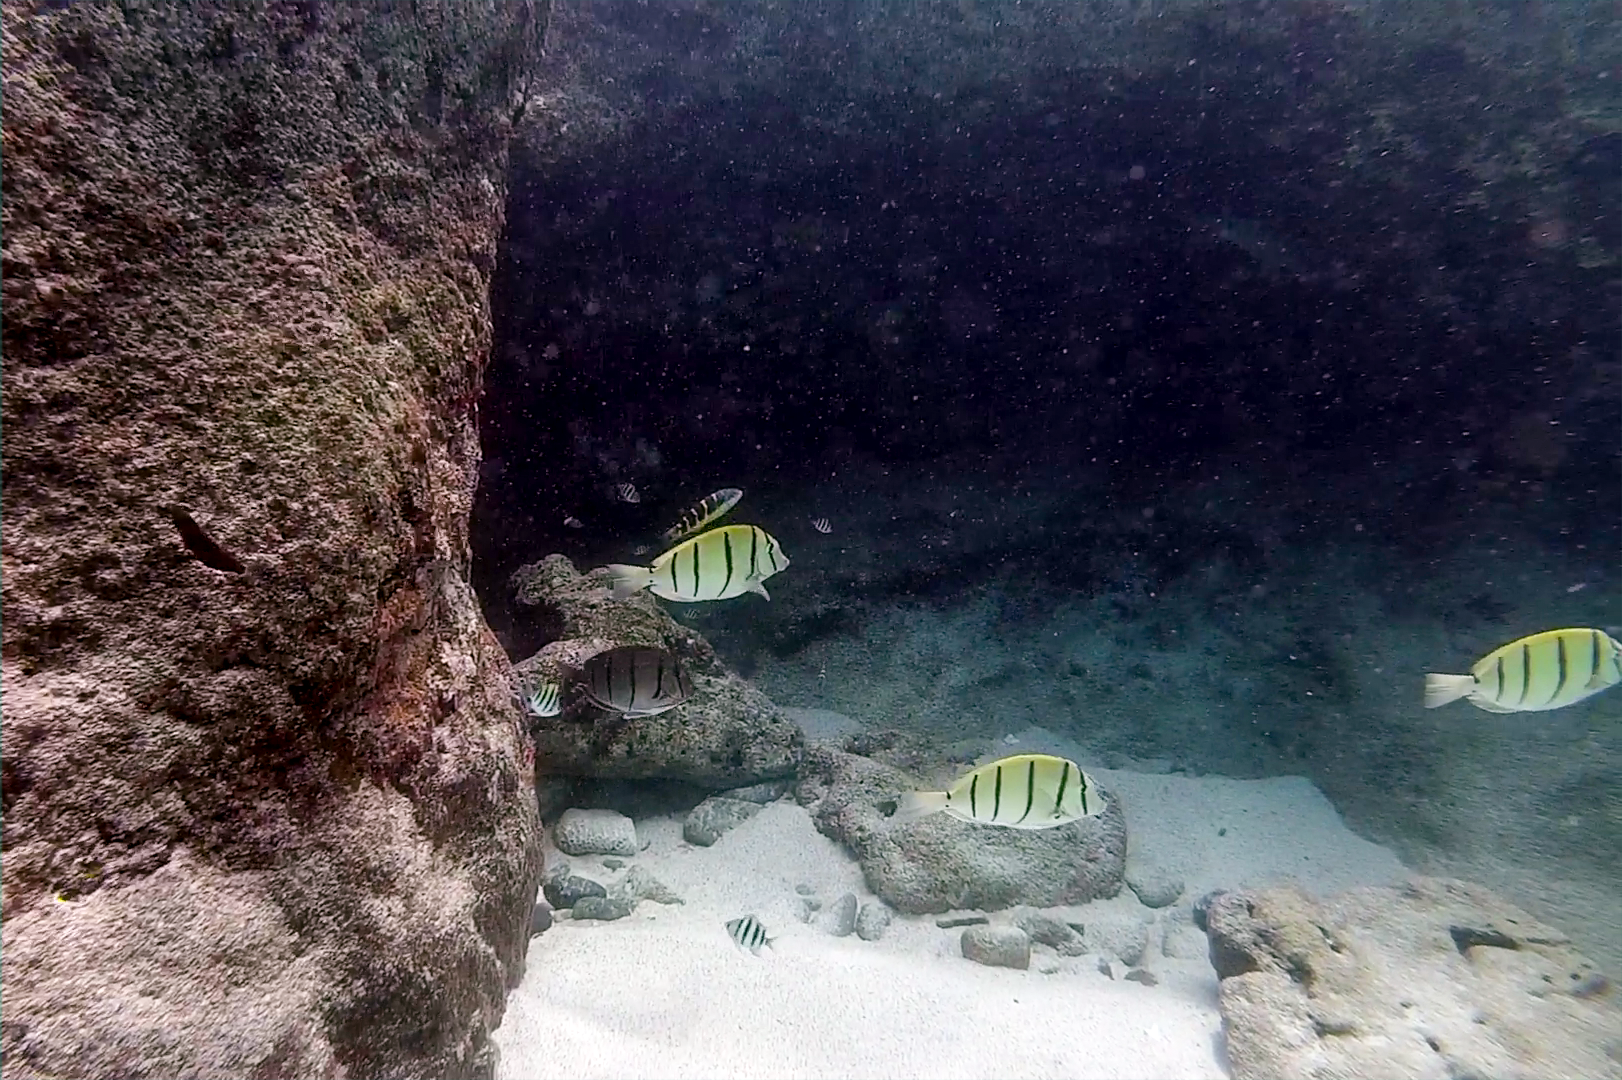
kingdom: Animalia
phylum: Chordata
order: Perciformes
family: Acanthuridae
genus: Acanthurus
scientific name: Acanthurus triostegus
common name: Convict surgeonfish
